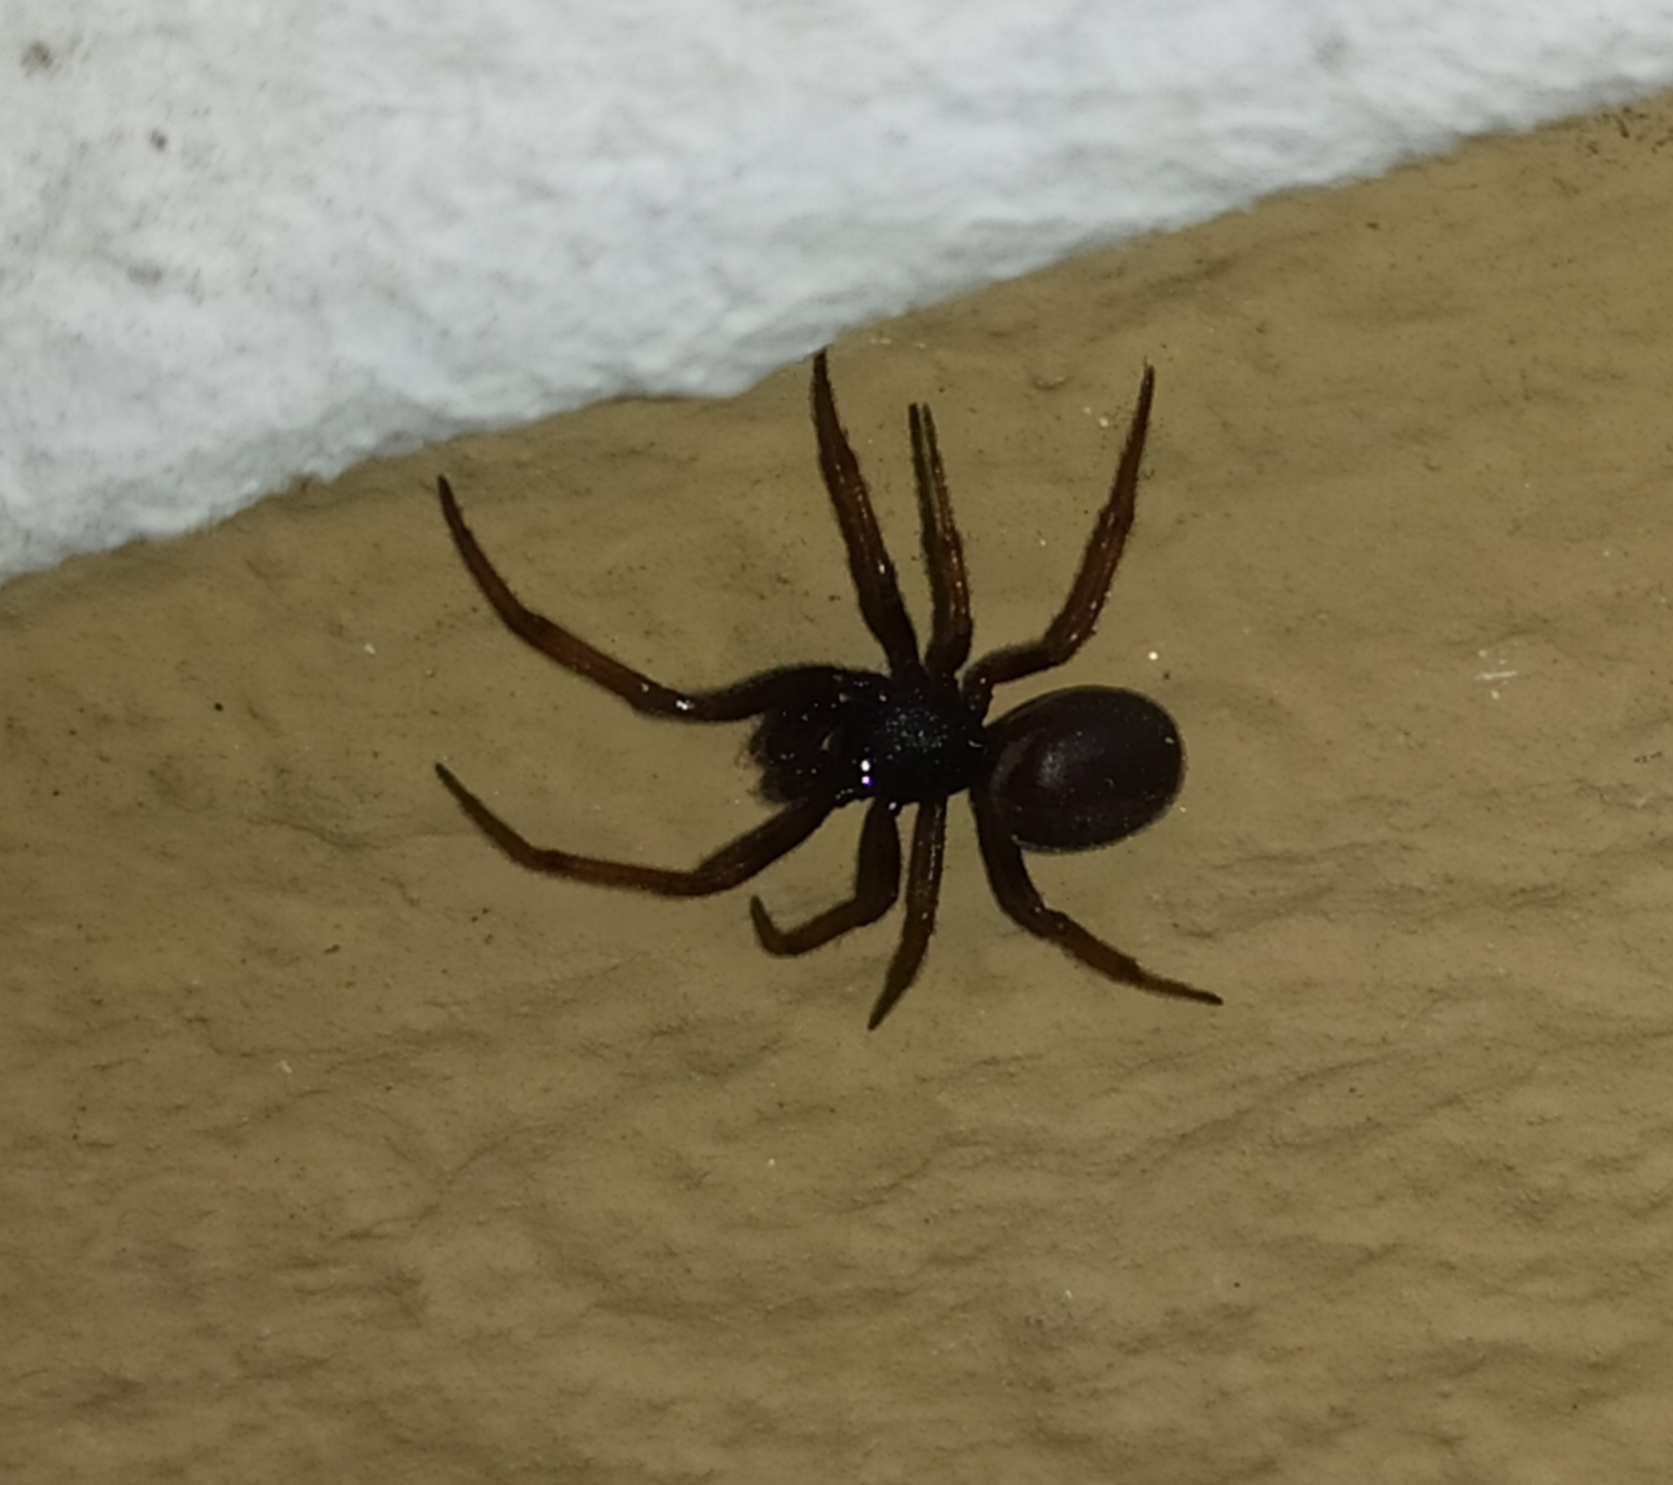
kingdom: Animalia
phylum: Arthropoda
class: Arachnida
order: Araneae
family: Theridiidae
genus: Steatoda
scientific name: Steatoda bipunctata
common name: False widow
